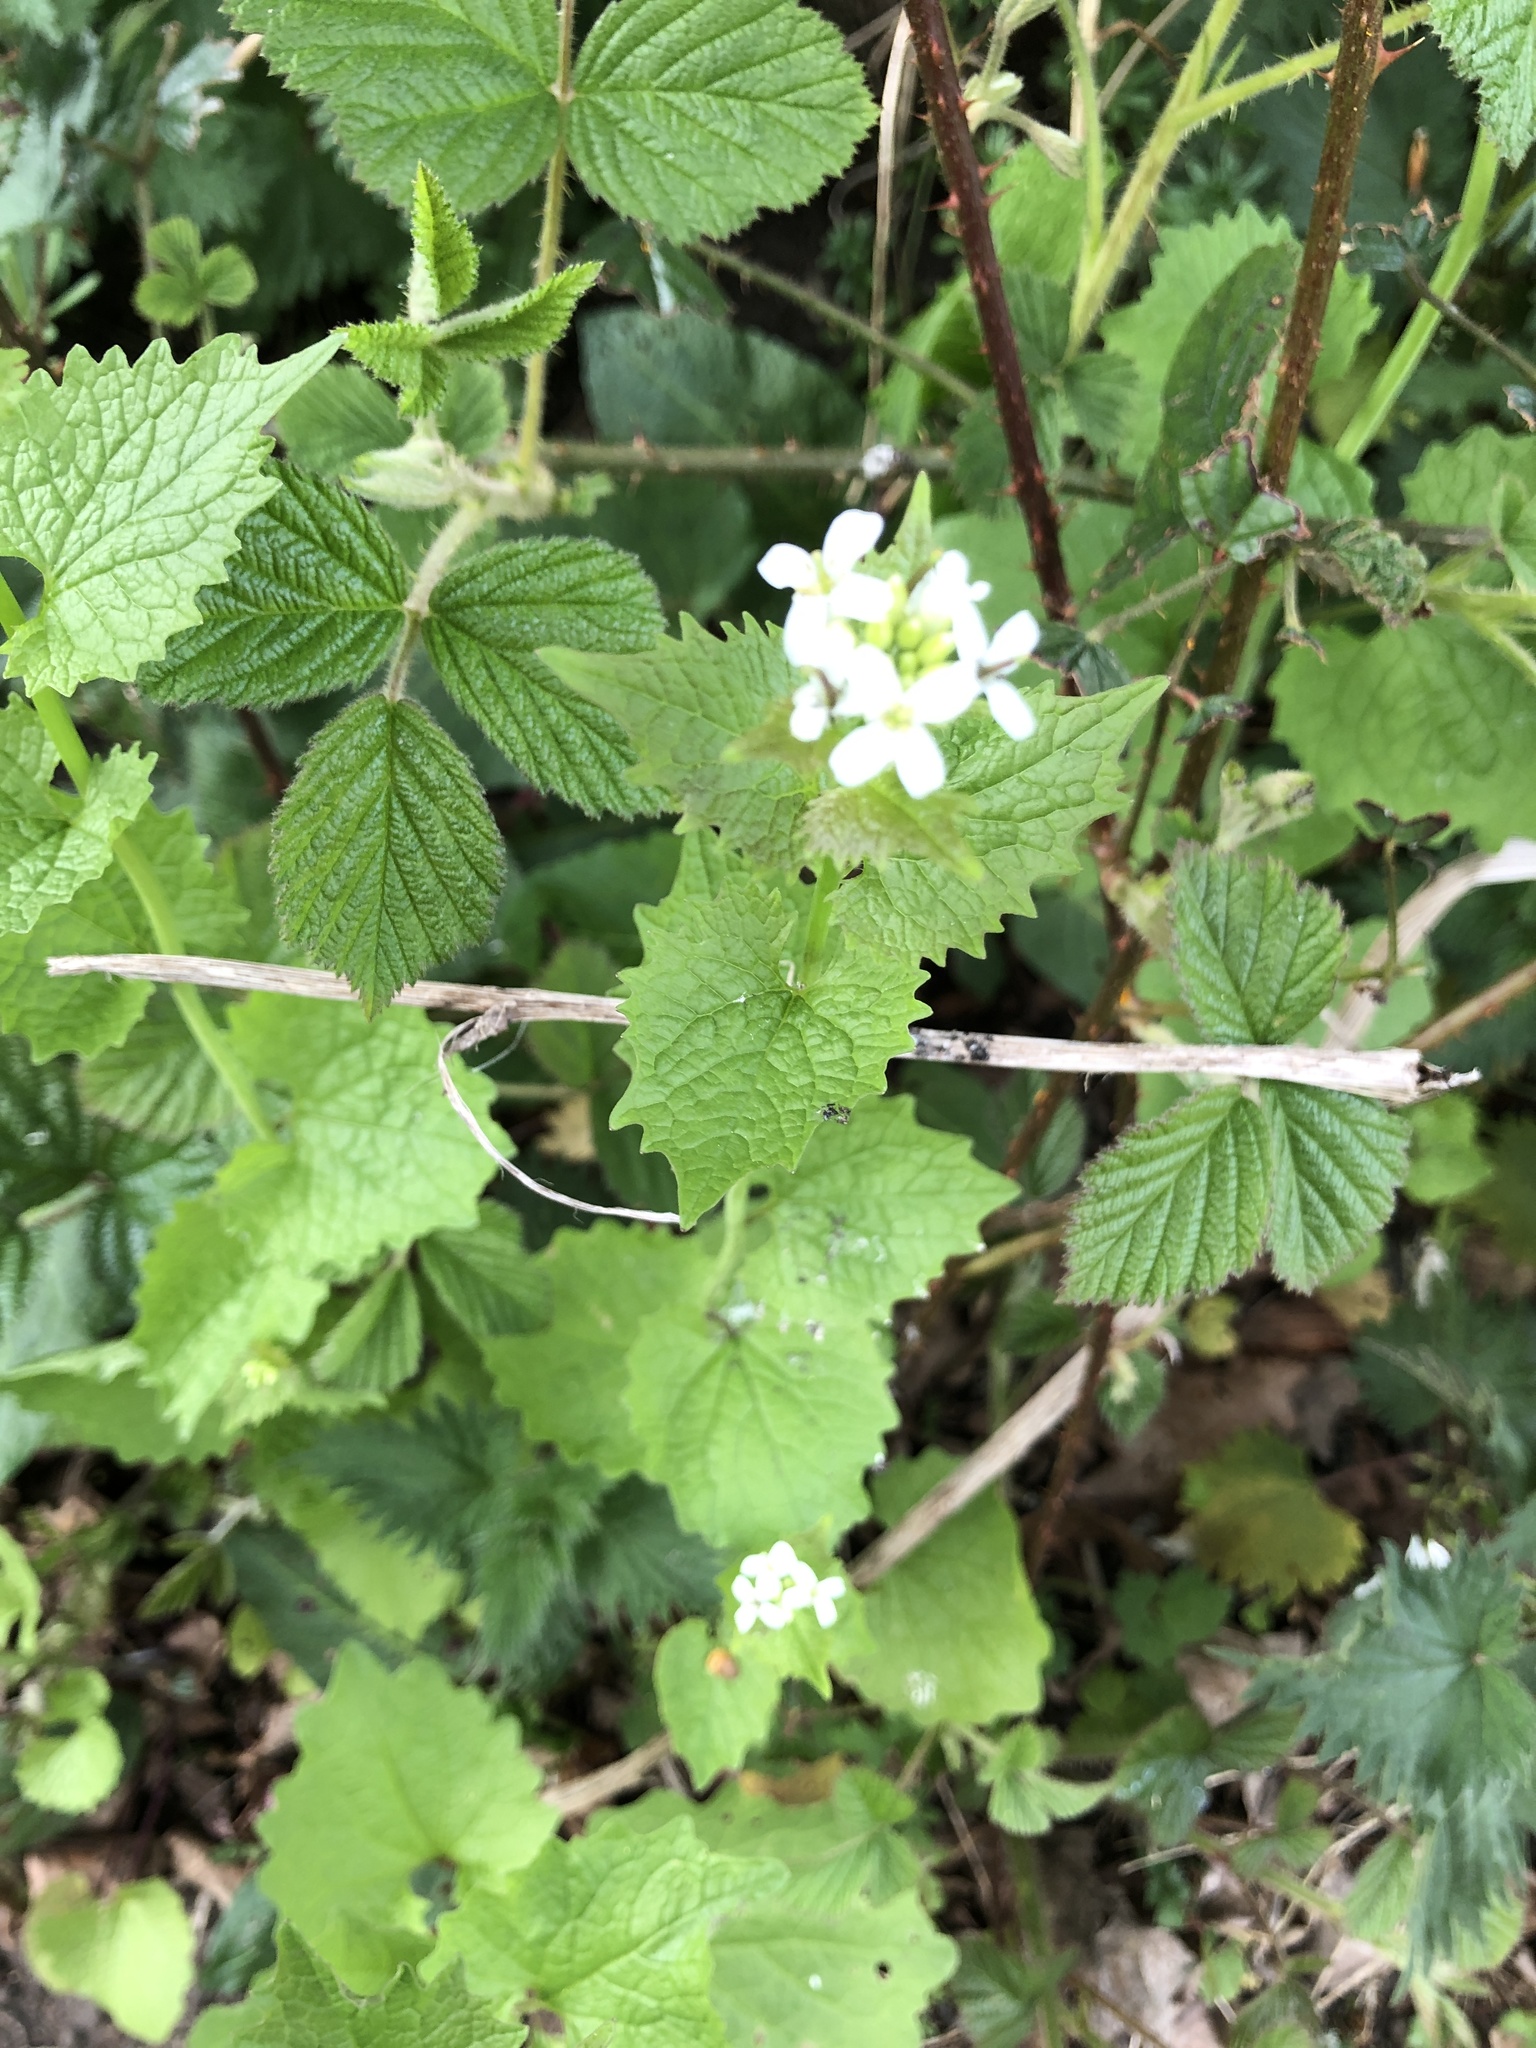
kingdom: Plantae
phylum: Tracheophyta
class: Magnoliopsida
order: Brassicales
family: Brassicaceae
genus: Alliaria
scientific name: Alliaria petiolata
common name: Garlic mustard
